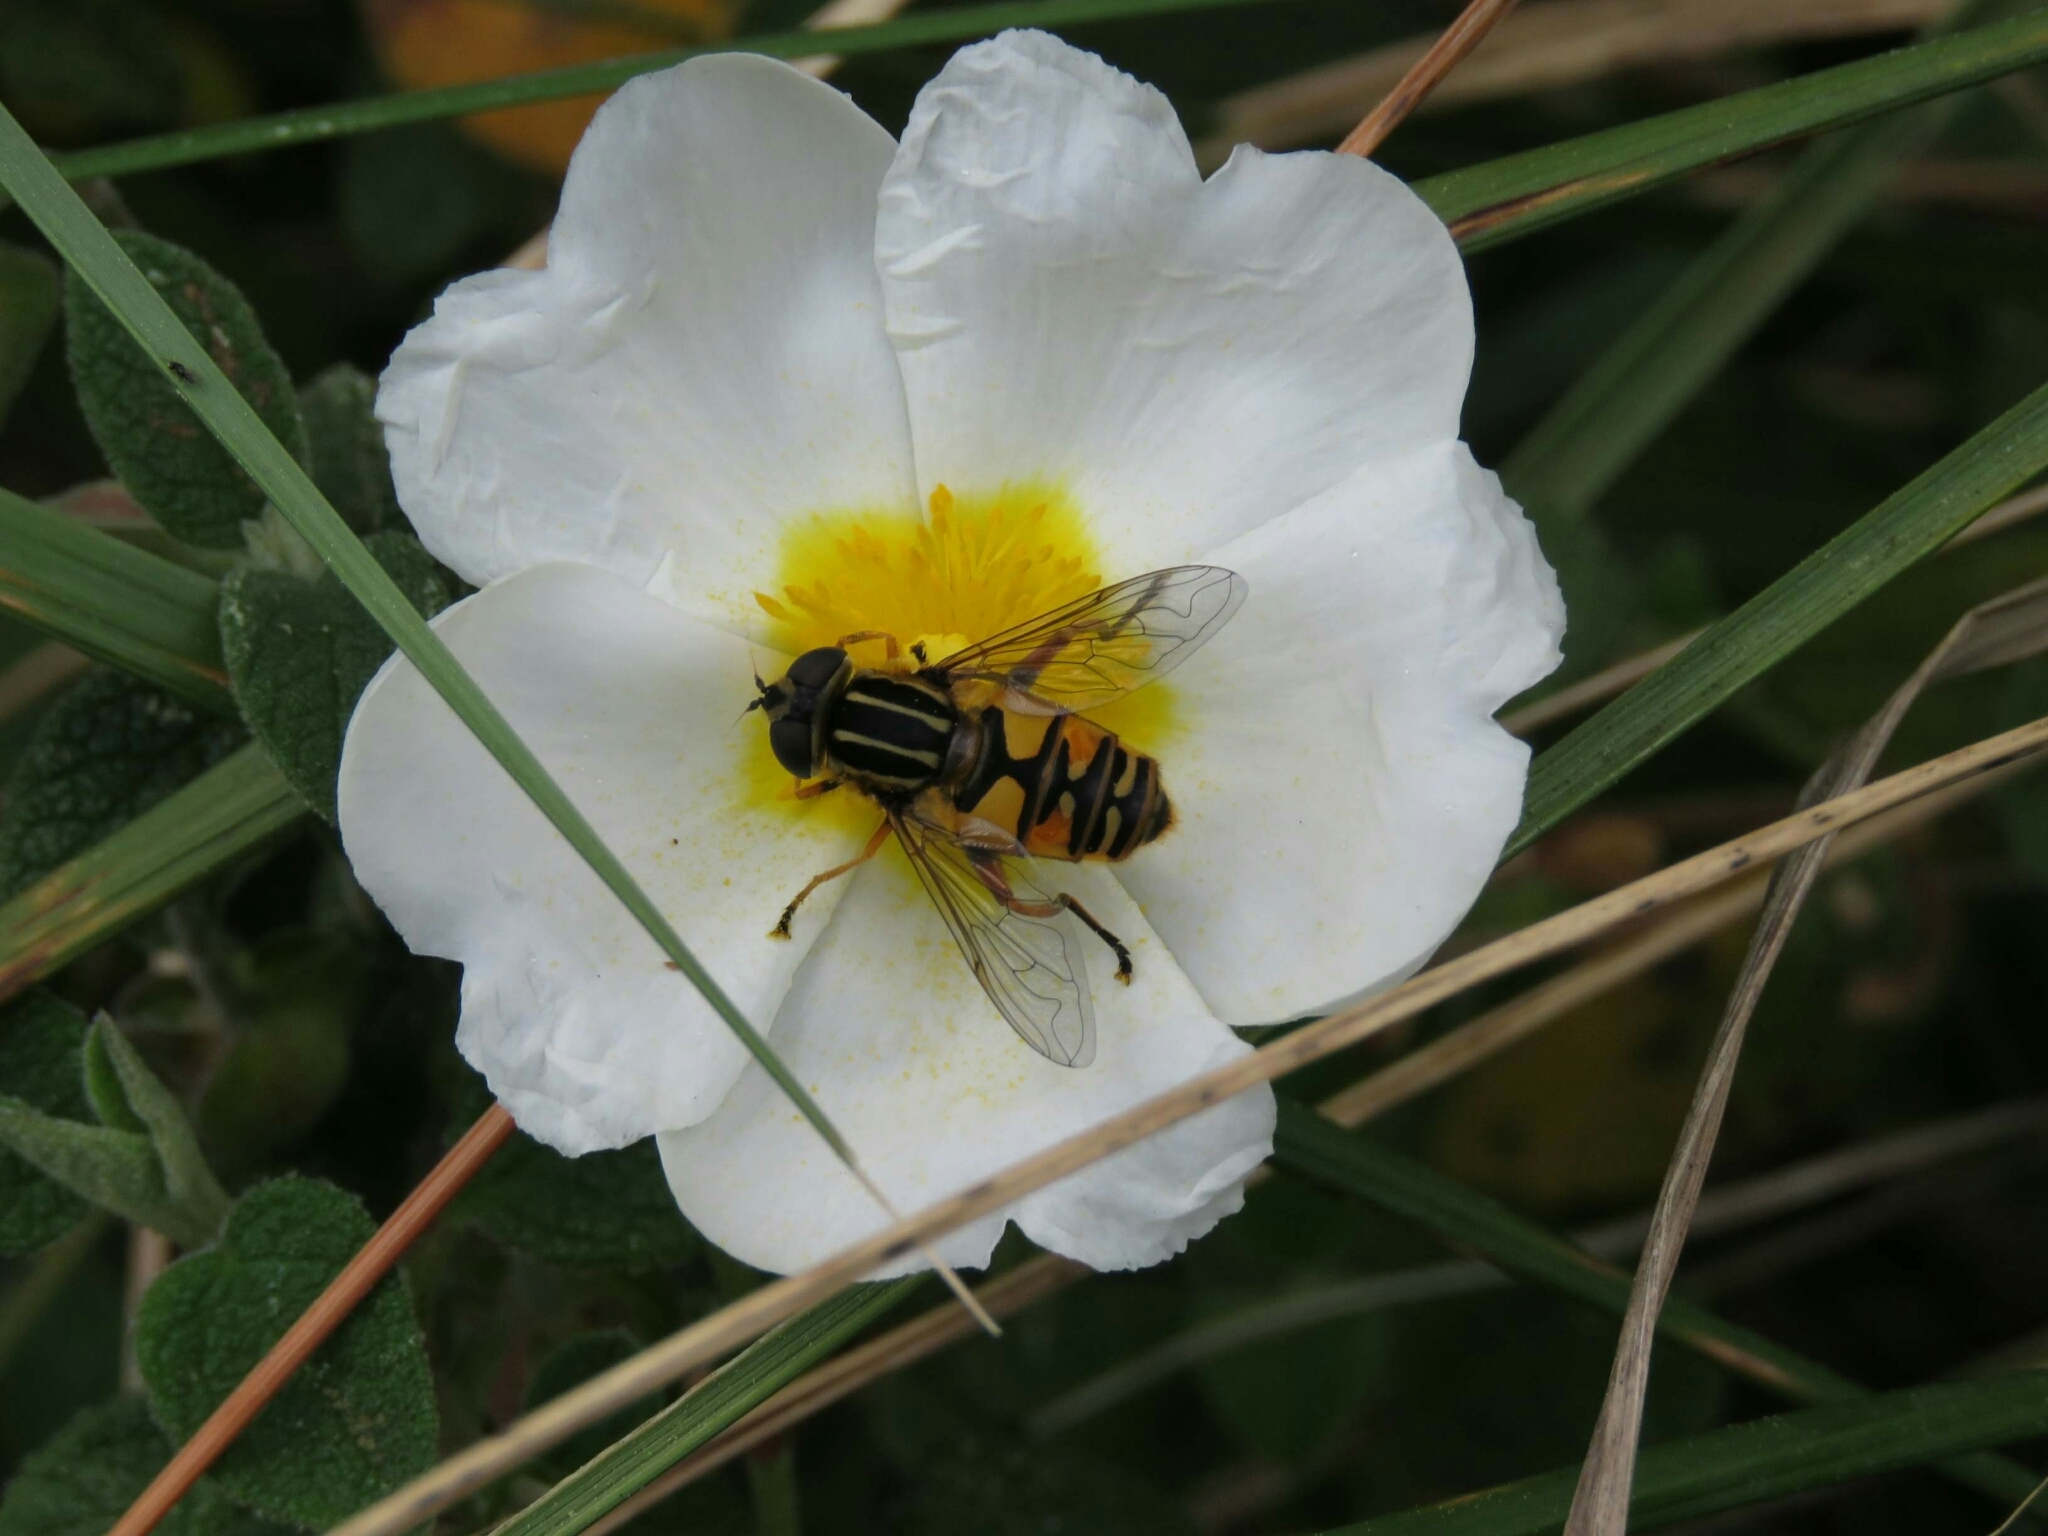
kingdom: Animalia
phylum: Arthropoda
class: Insecta
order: Diptera
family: Syrphidae
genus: Helophilus
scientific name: Helophilus pendulus
